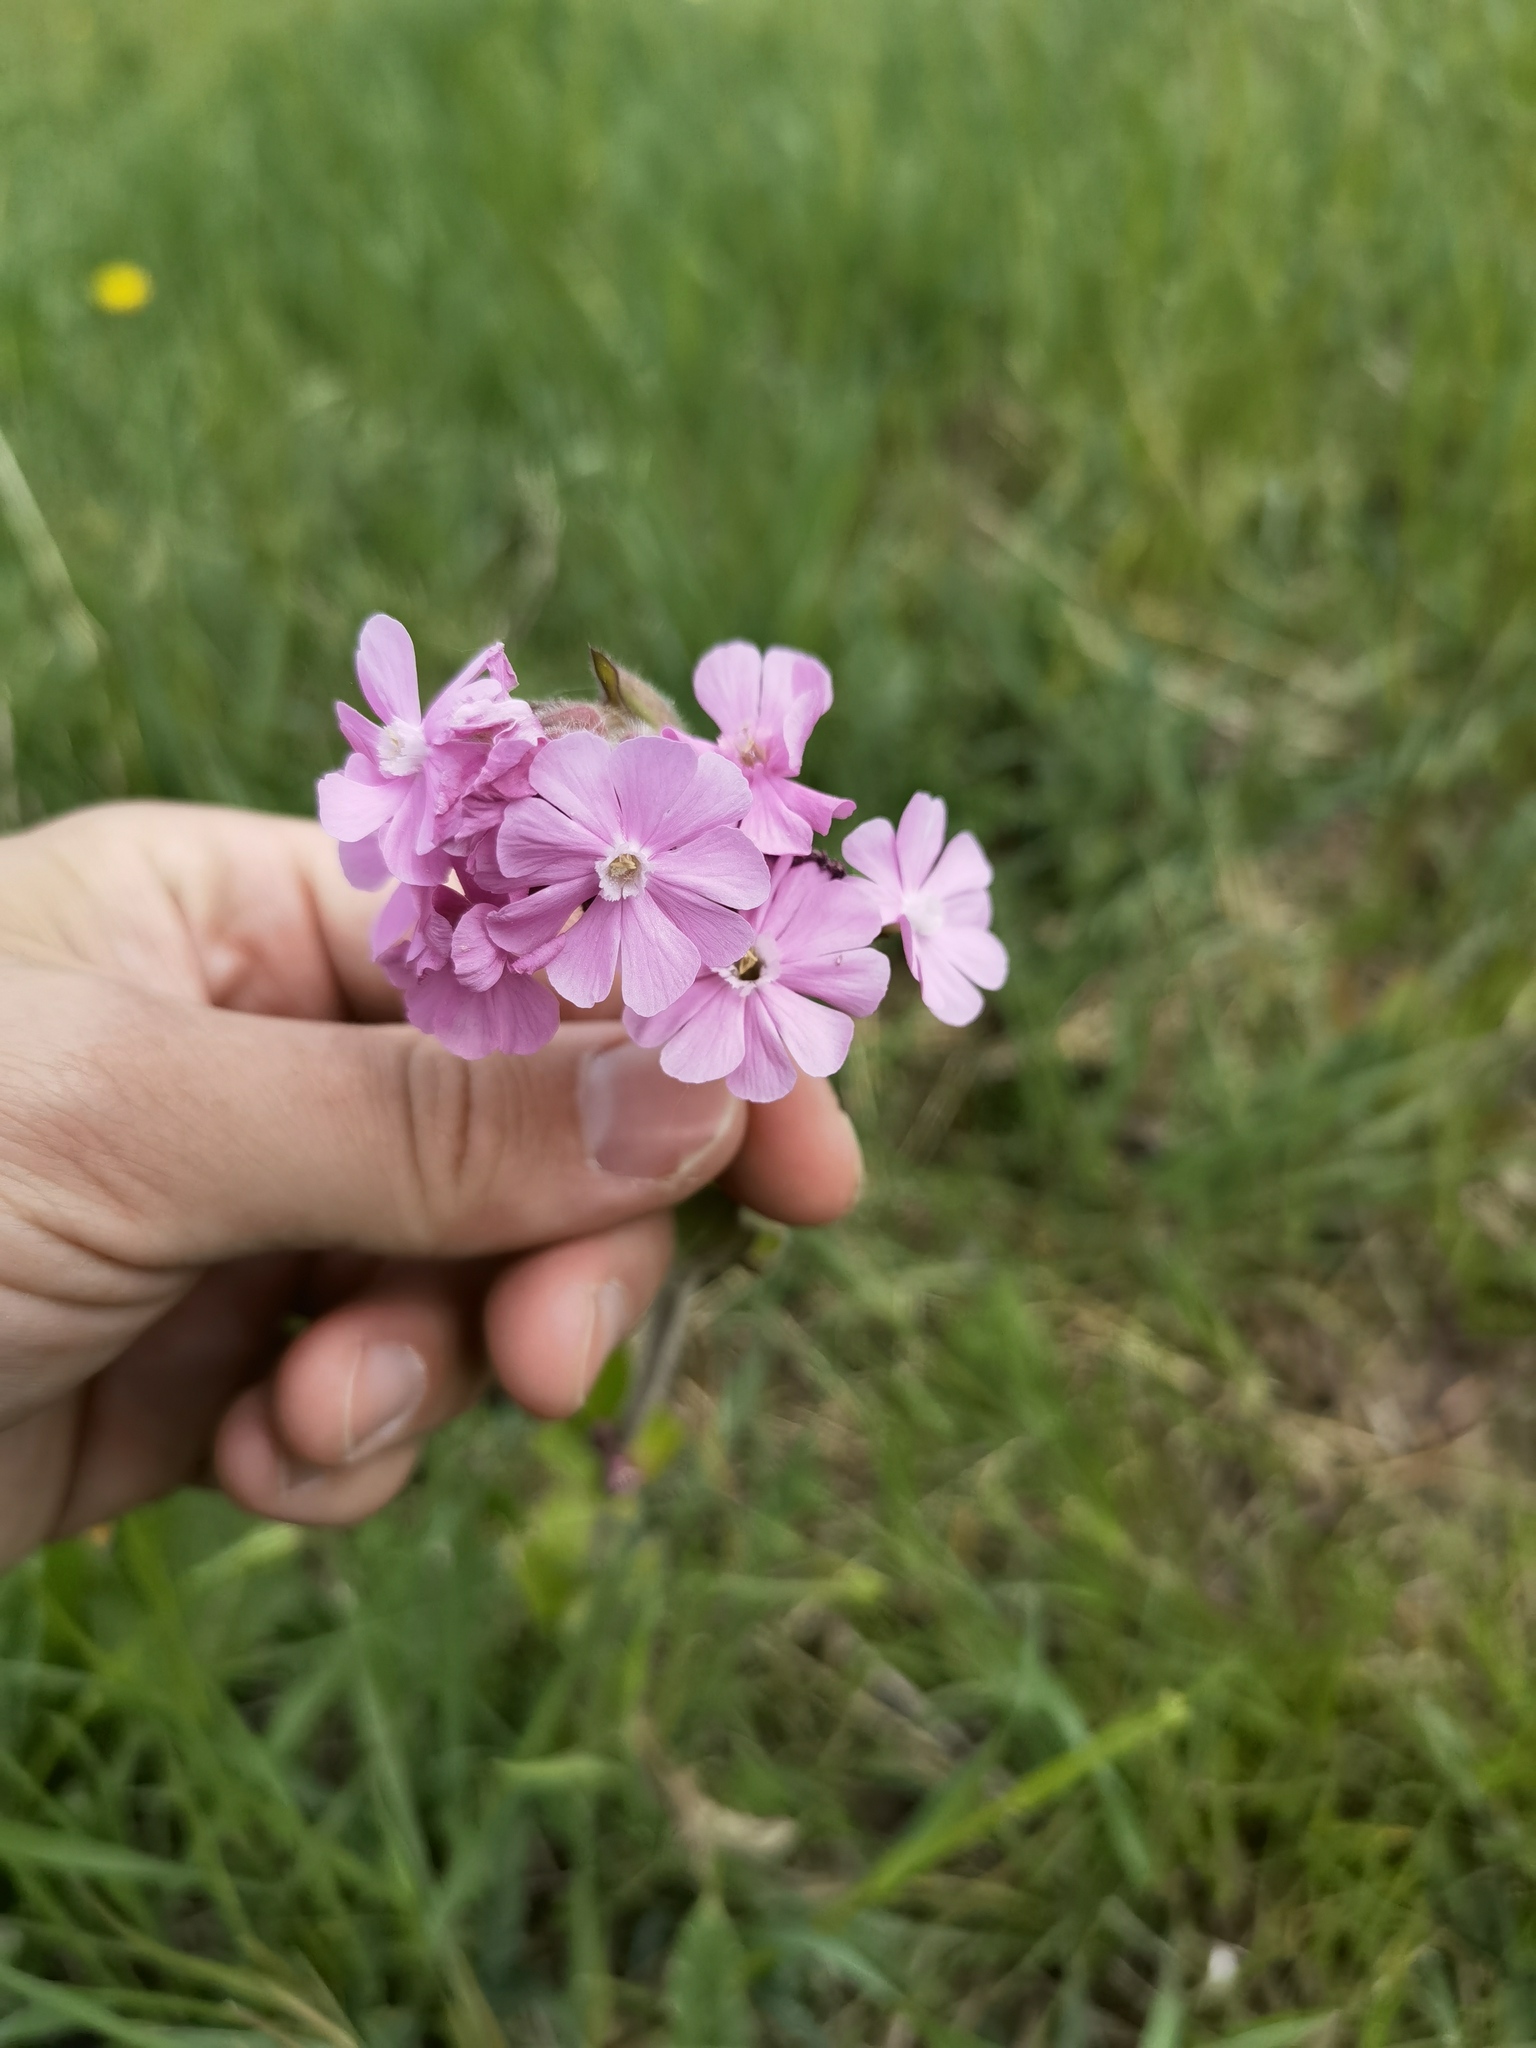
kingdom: Plantae
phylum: Tracheophyta
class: Magnoliopsida
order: Caryophyllales
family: Caryophyllaceae
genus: Silene
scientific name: Silene dioica
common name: Red campion
